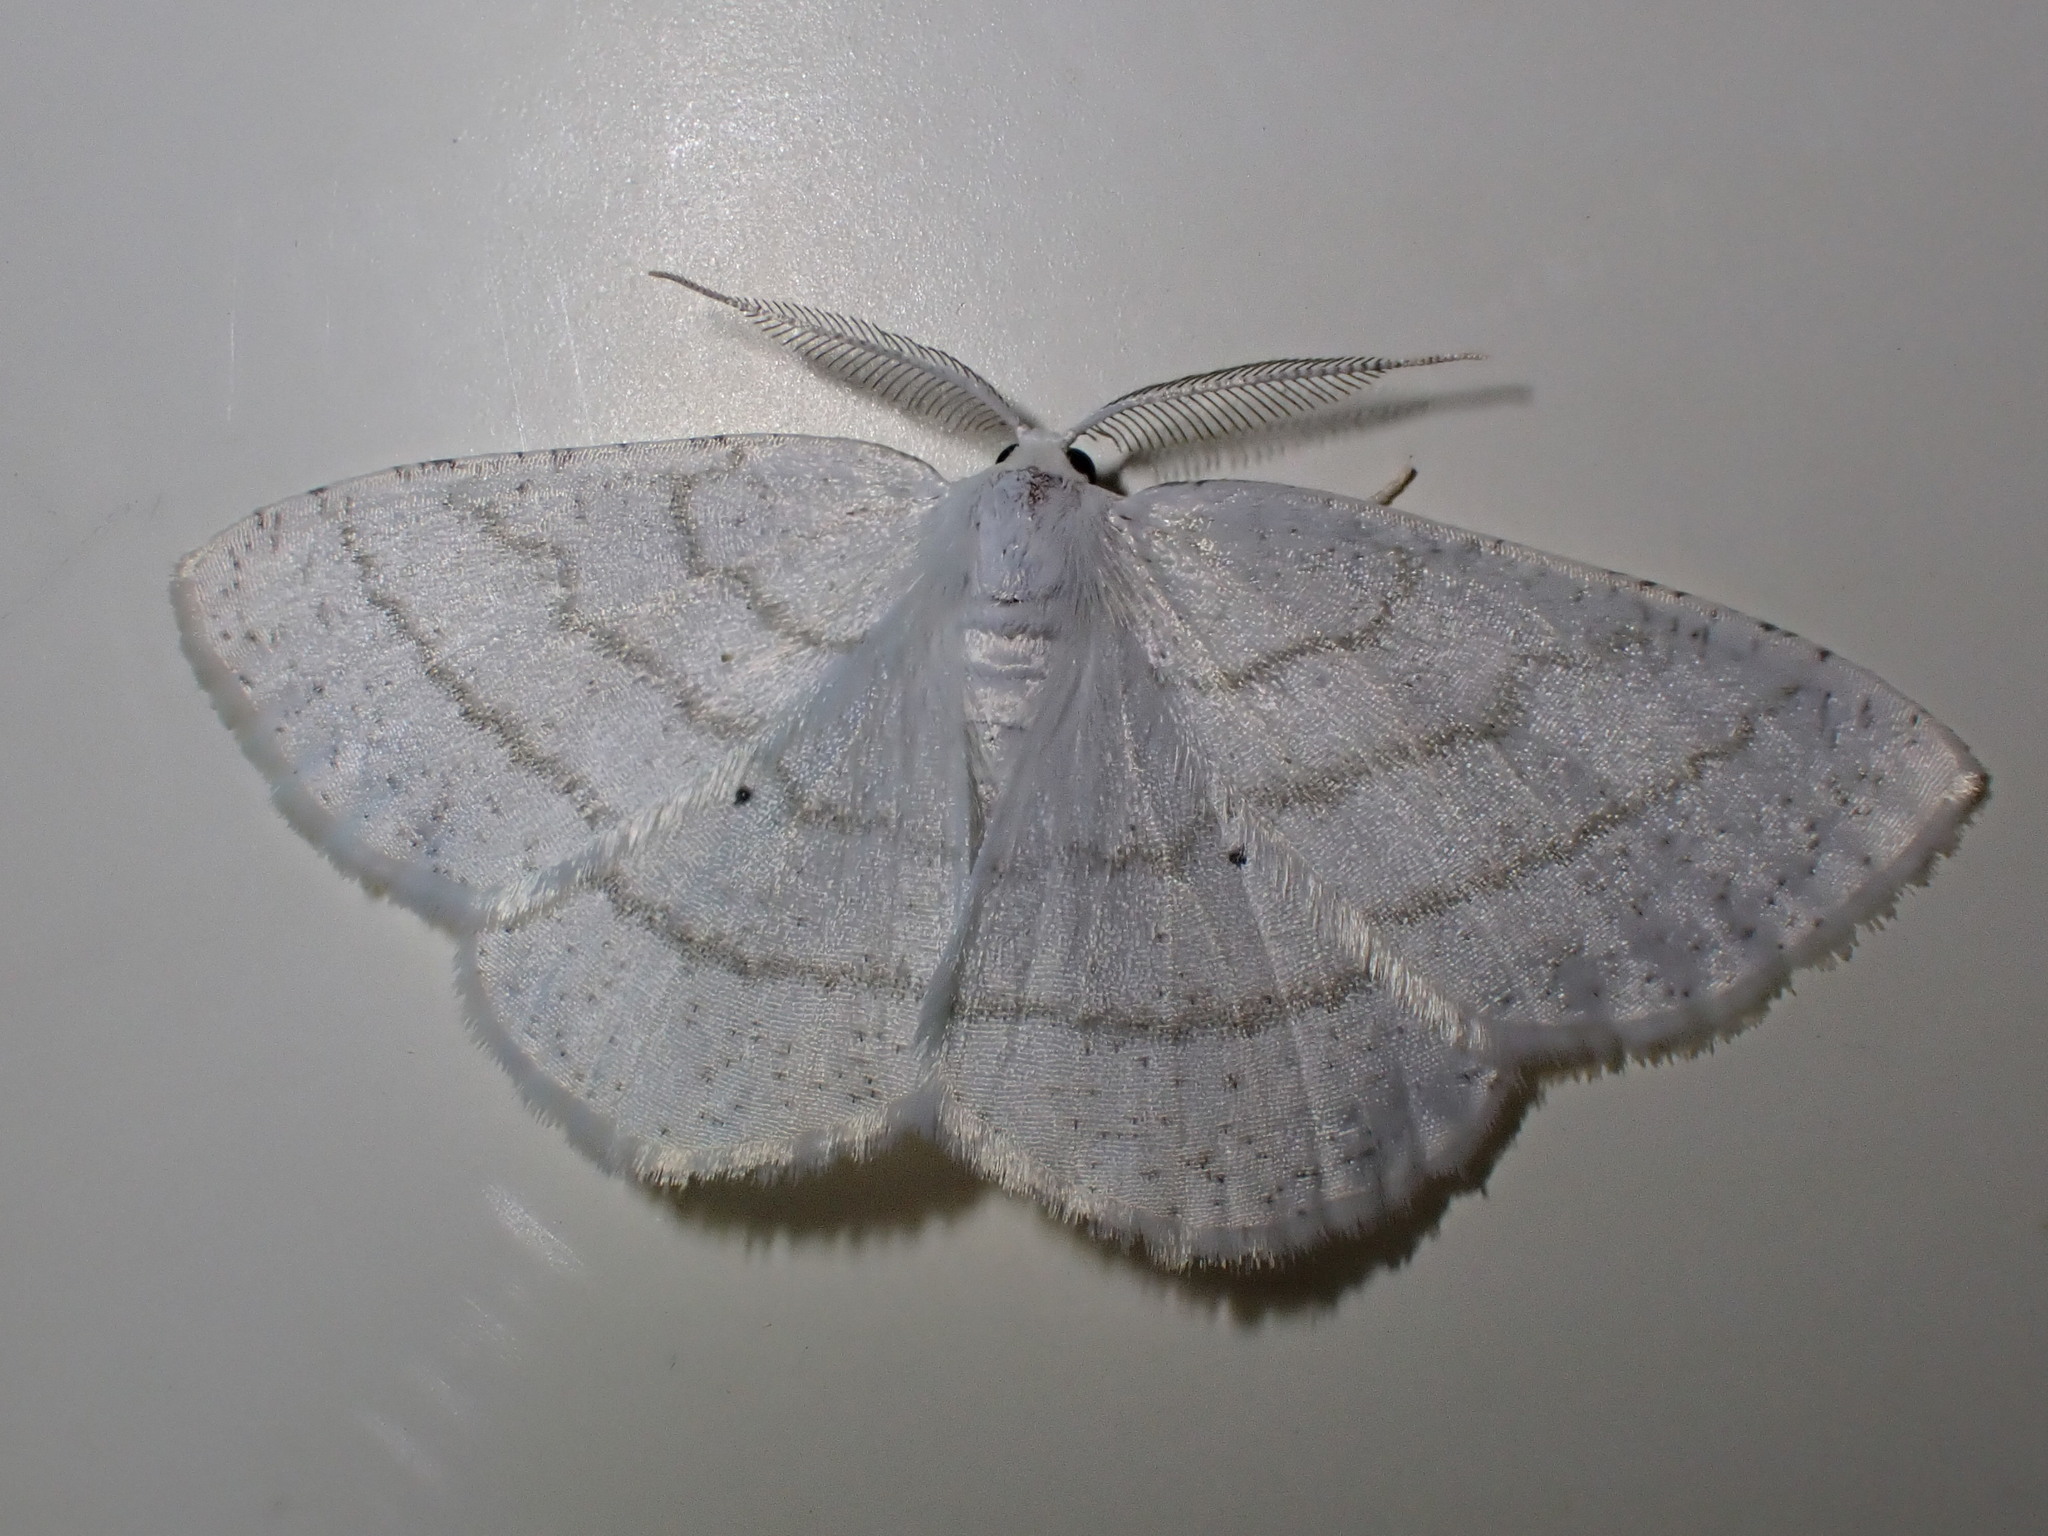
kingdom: Animalia
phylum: Arthropoda
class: Insecta
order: Lepidoptera
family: Geometridae
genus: Cabera
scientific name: Cabera pusaria
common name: Common white wave
